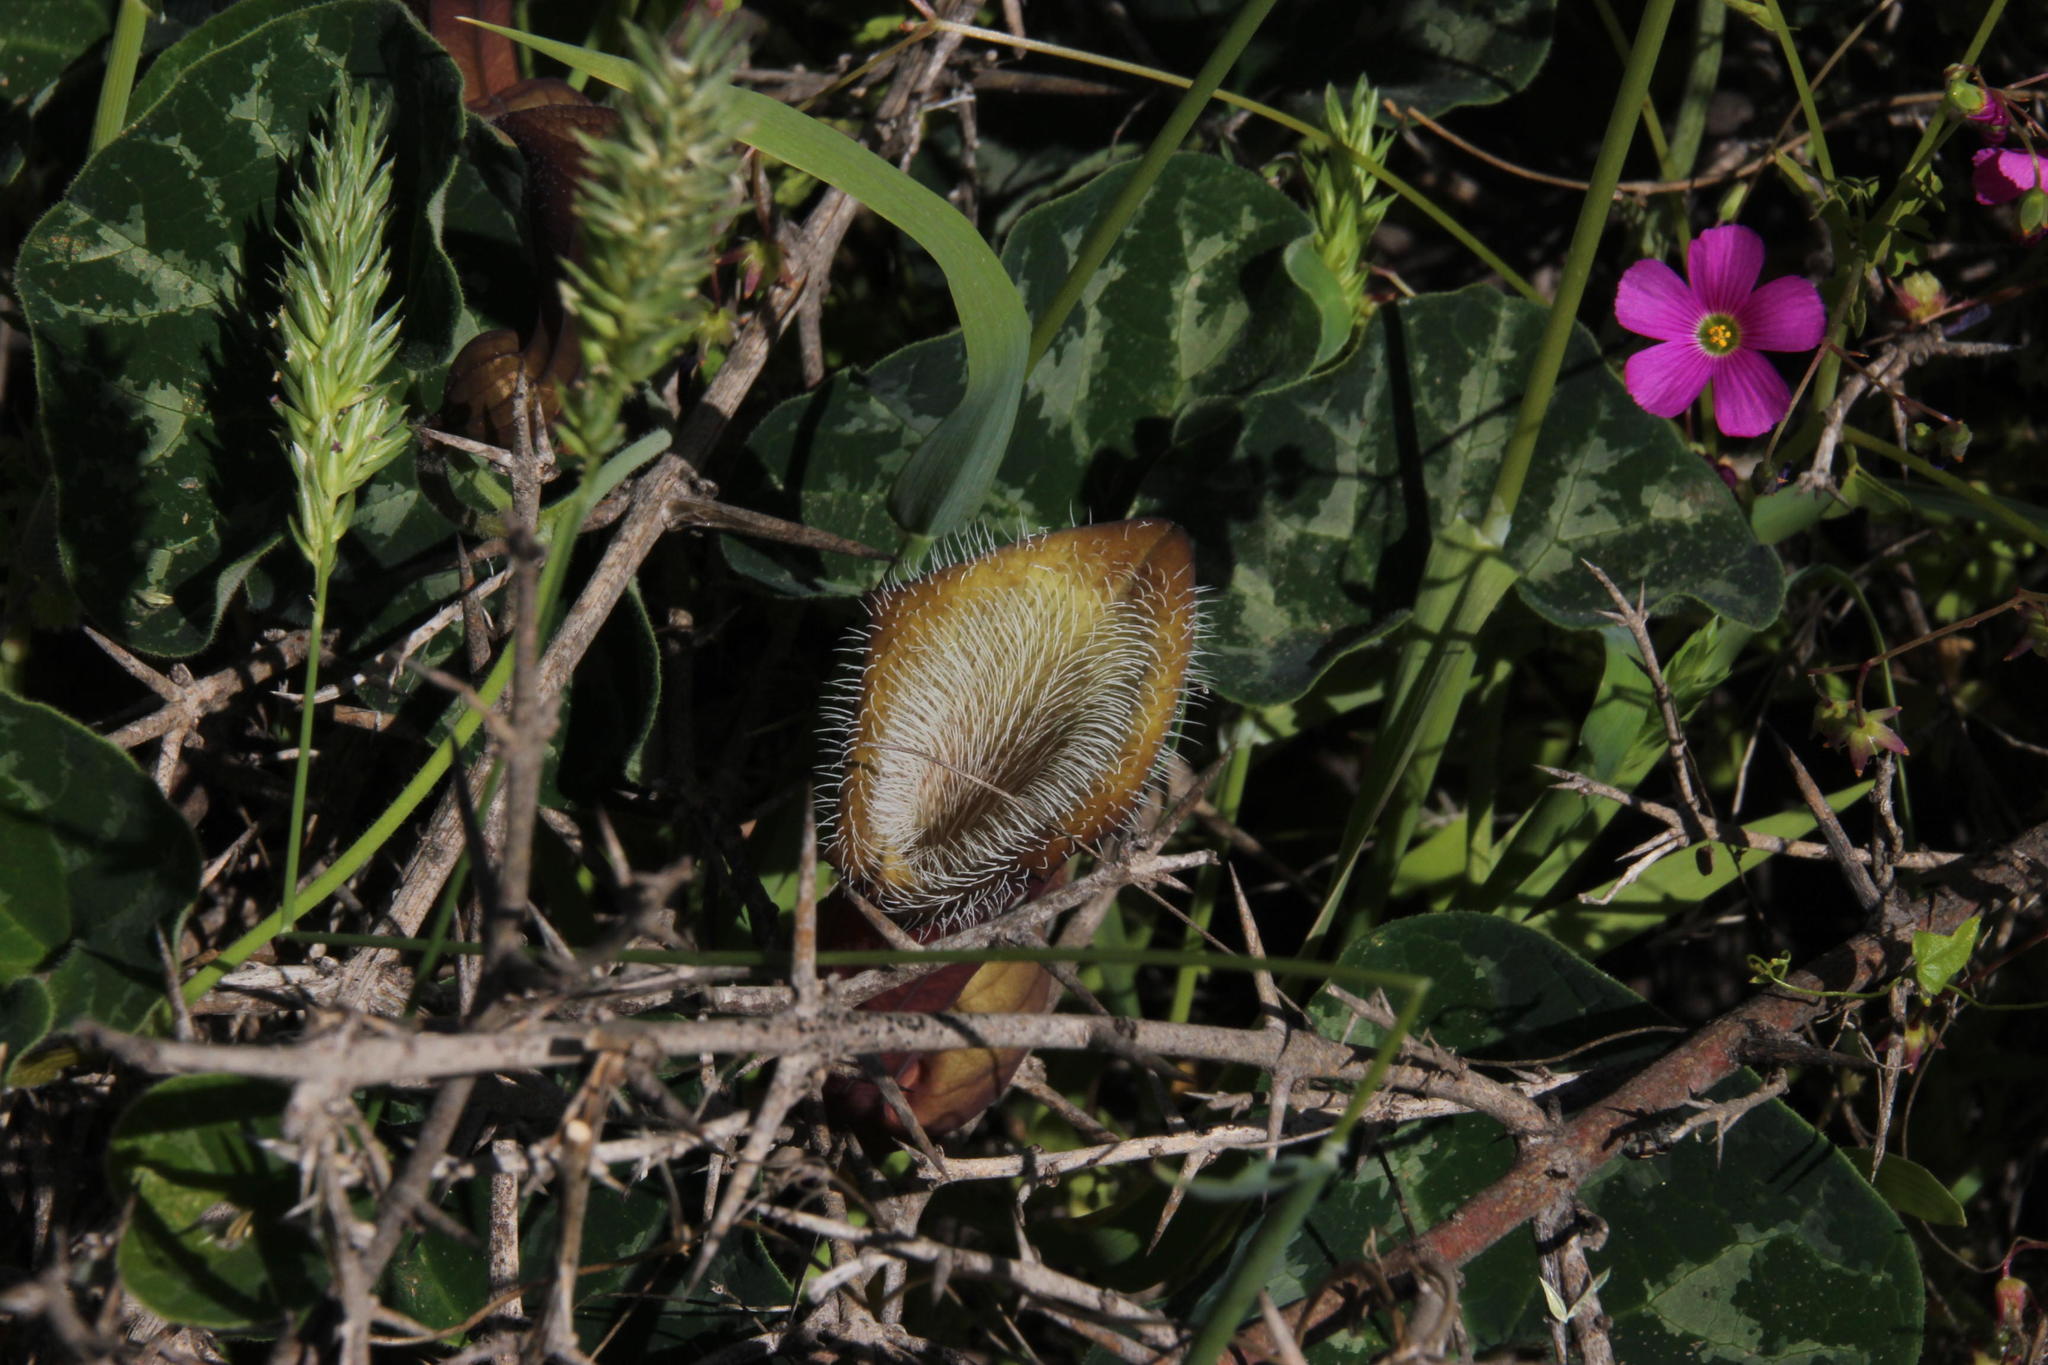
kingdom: Plantae
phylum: Tracheophyta
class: Magnoliopsida
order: Piperales
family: Aristolochiaceae
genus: Aristolochia
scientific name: Aristolochia chilensis
